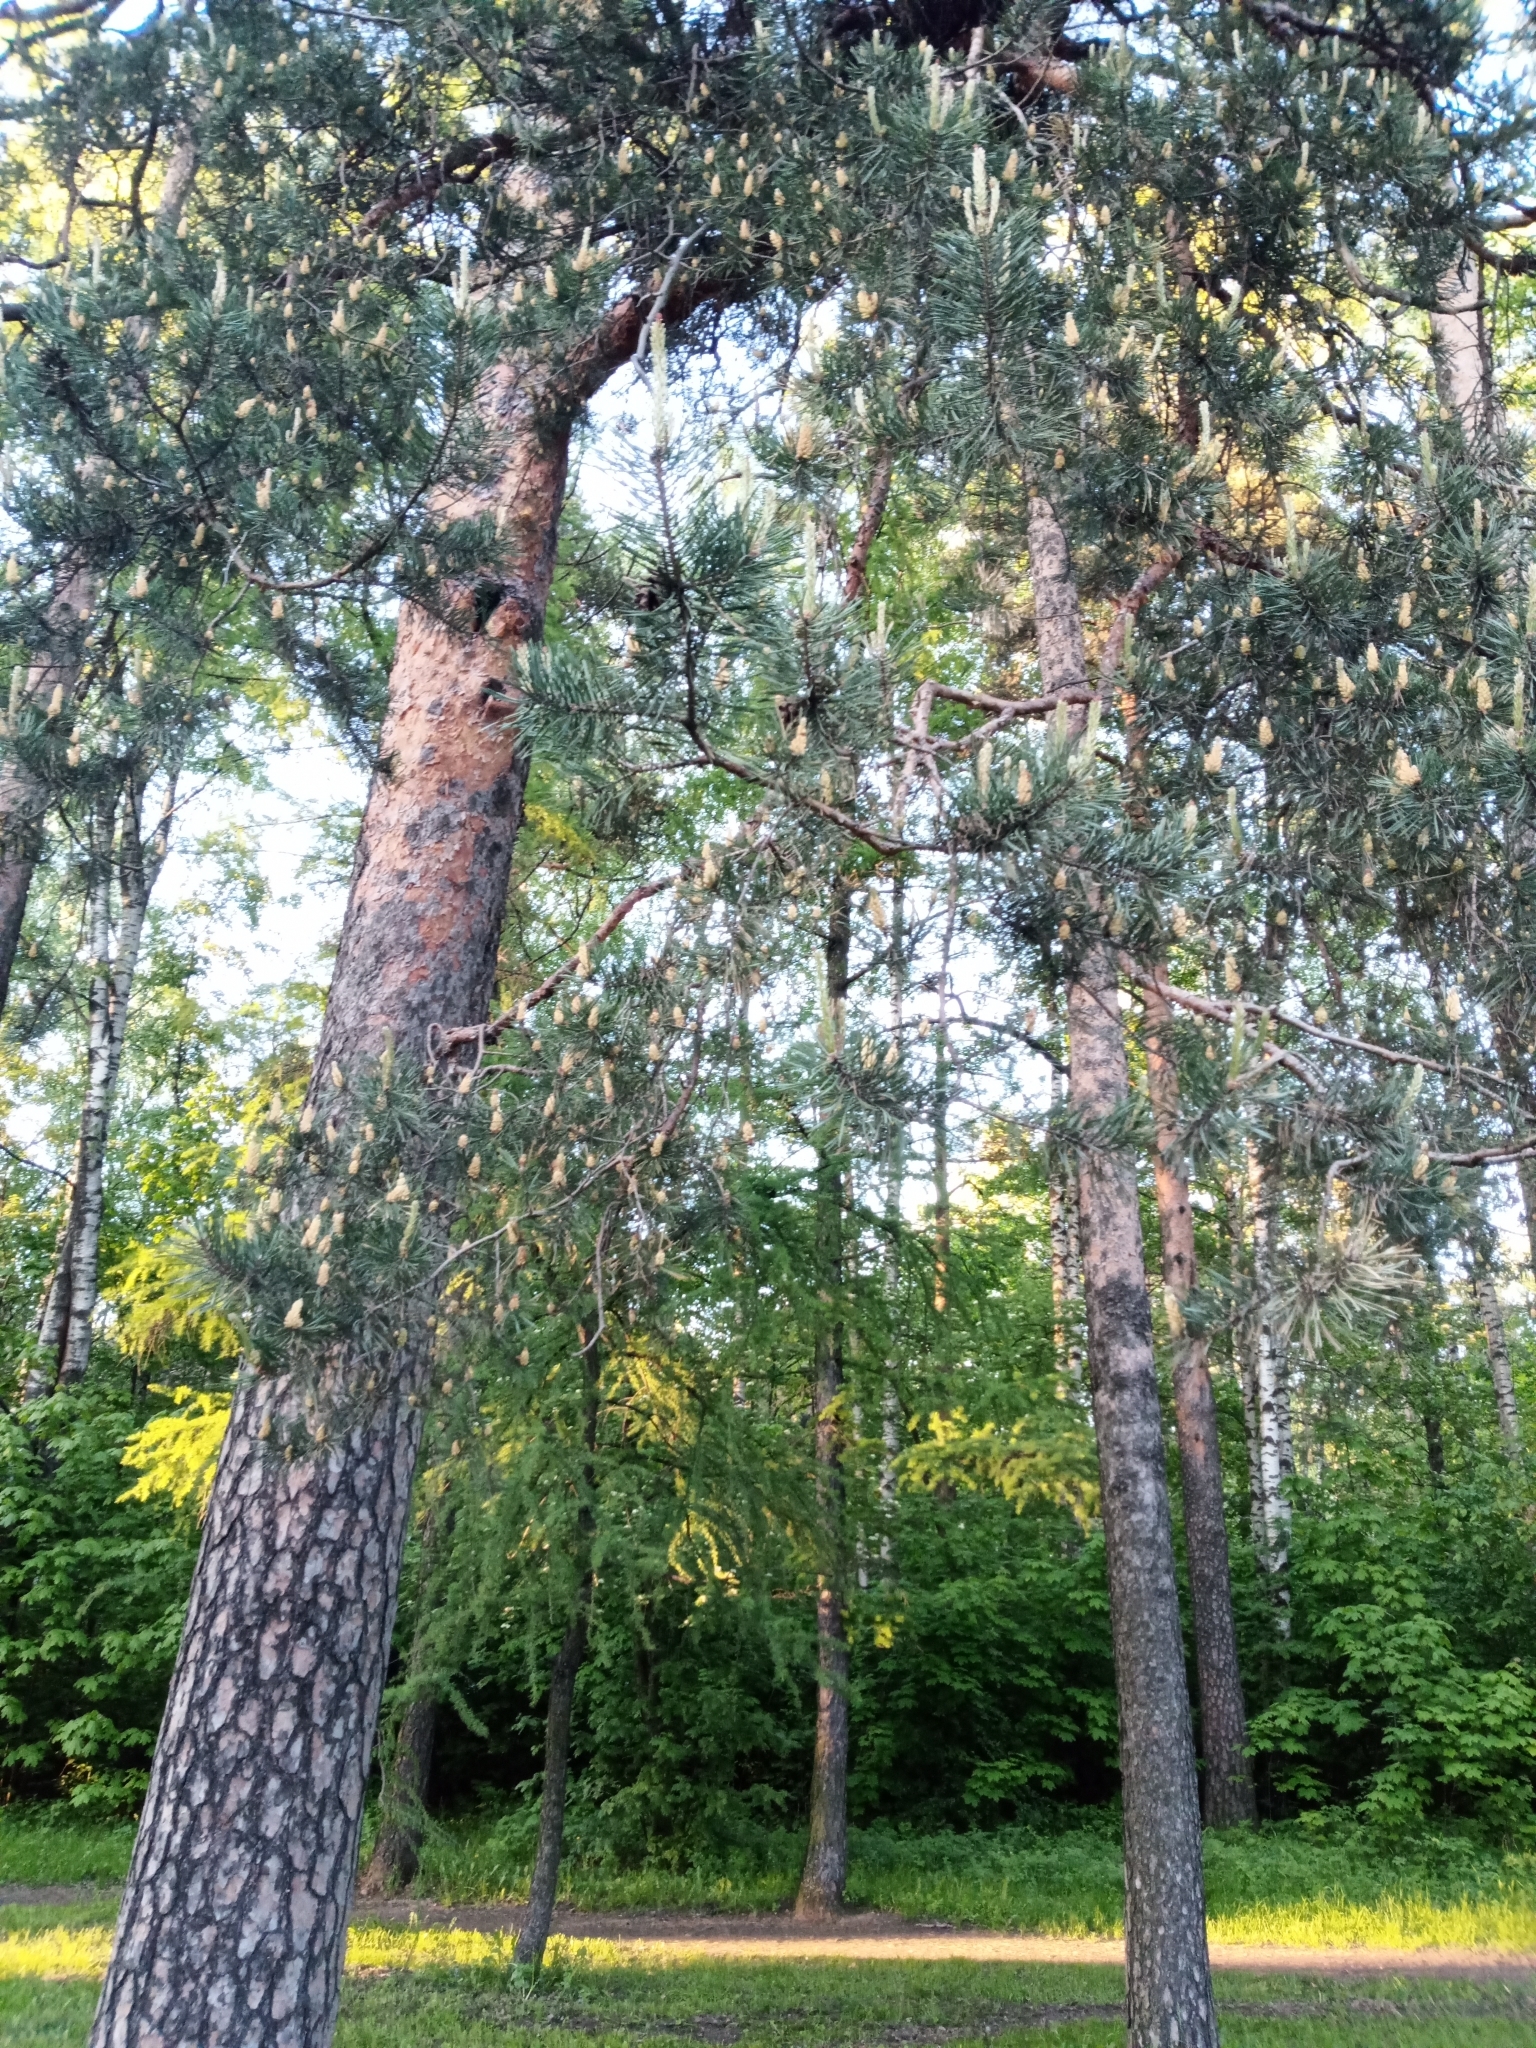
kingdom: Plantae
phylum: Tracheophyta
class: Pinopsida
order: Pinales
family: Pinaceae
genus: Pinus
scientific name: Pinus sylvestris
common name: Scots pine
